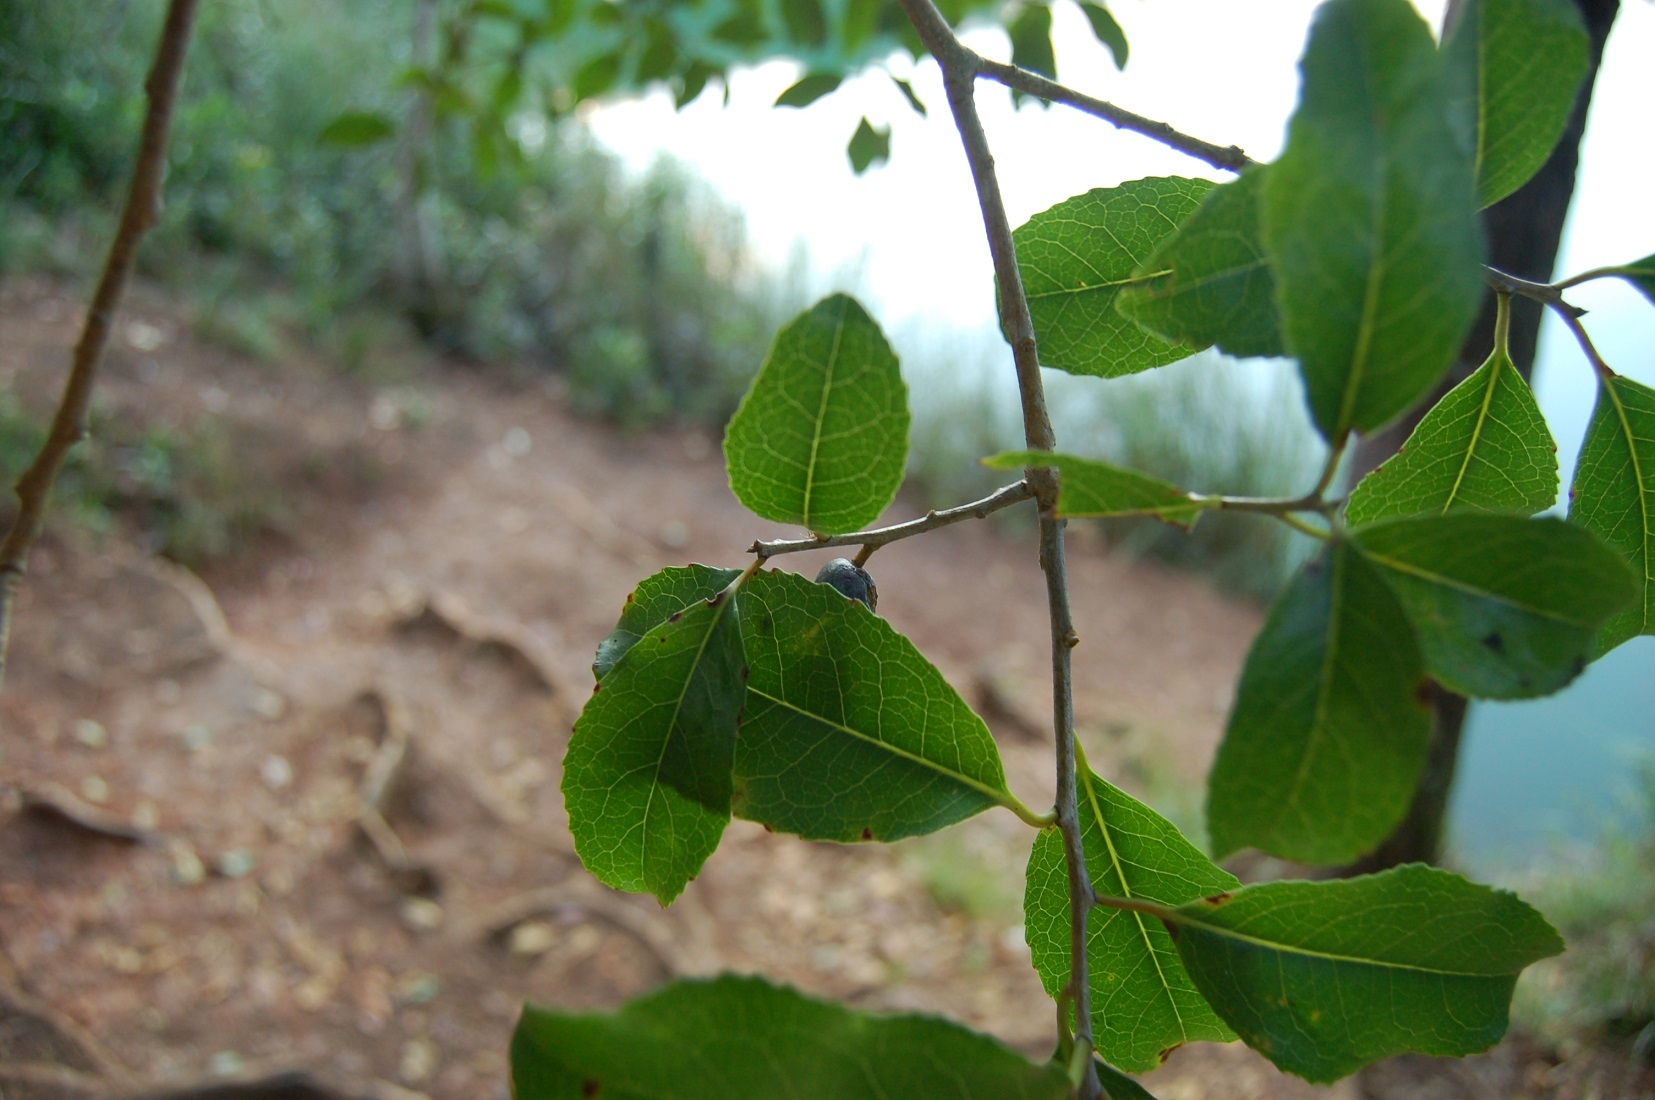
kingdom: Plantae
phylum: Tracheophyta
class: Magnoliopsida
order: Ericales
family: Symplocaceae
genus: Symplocos
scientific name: Symplocos excelsa
